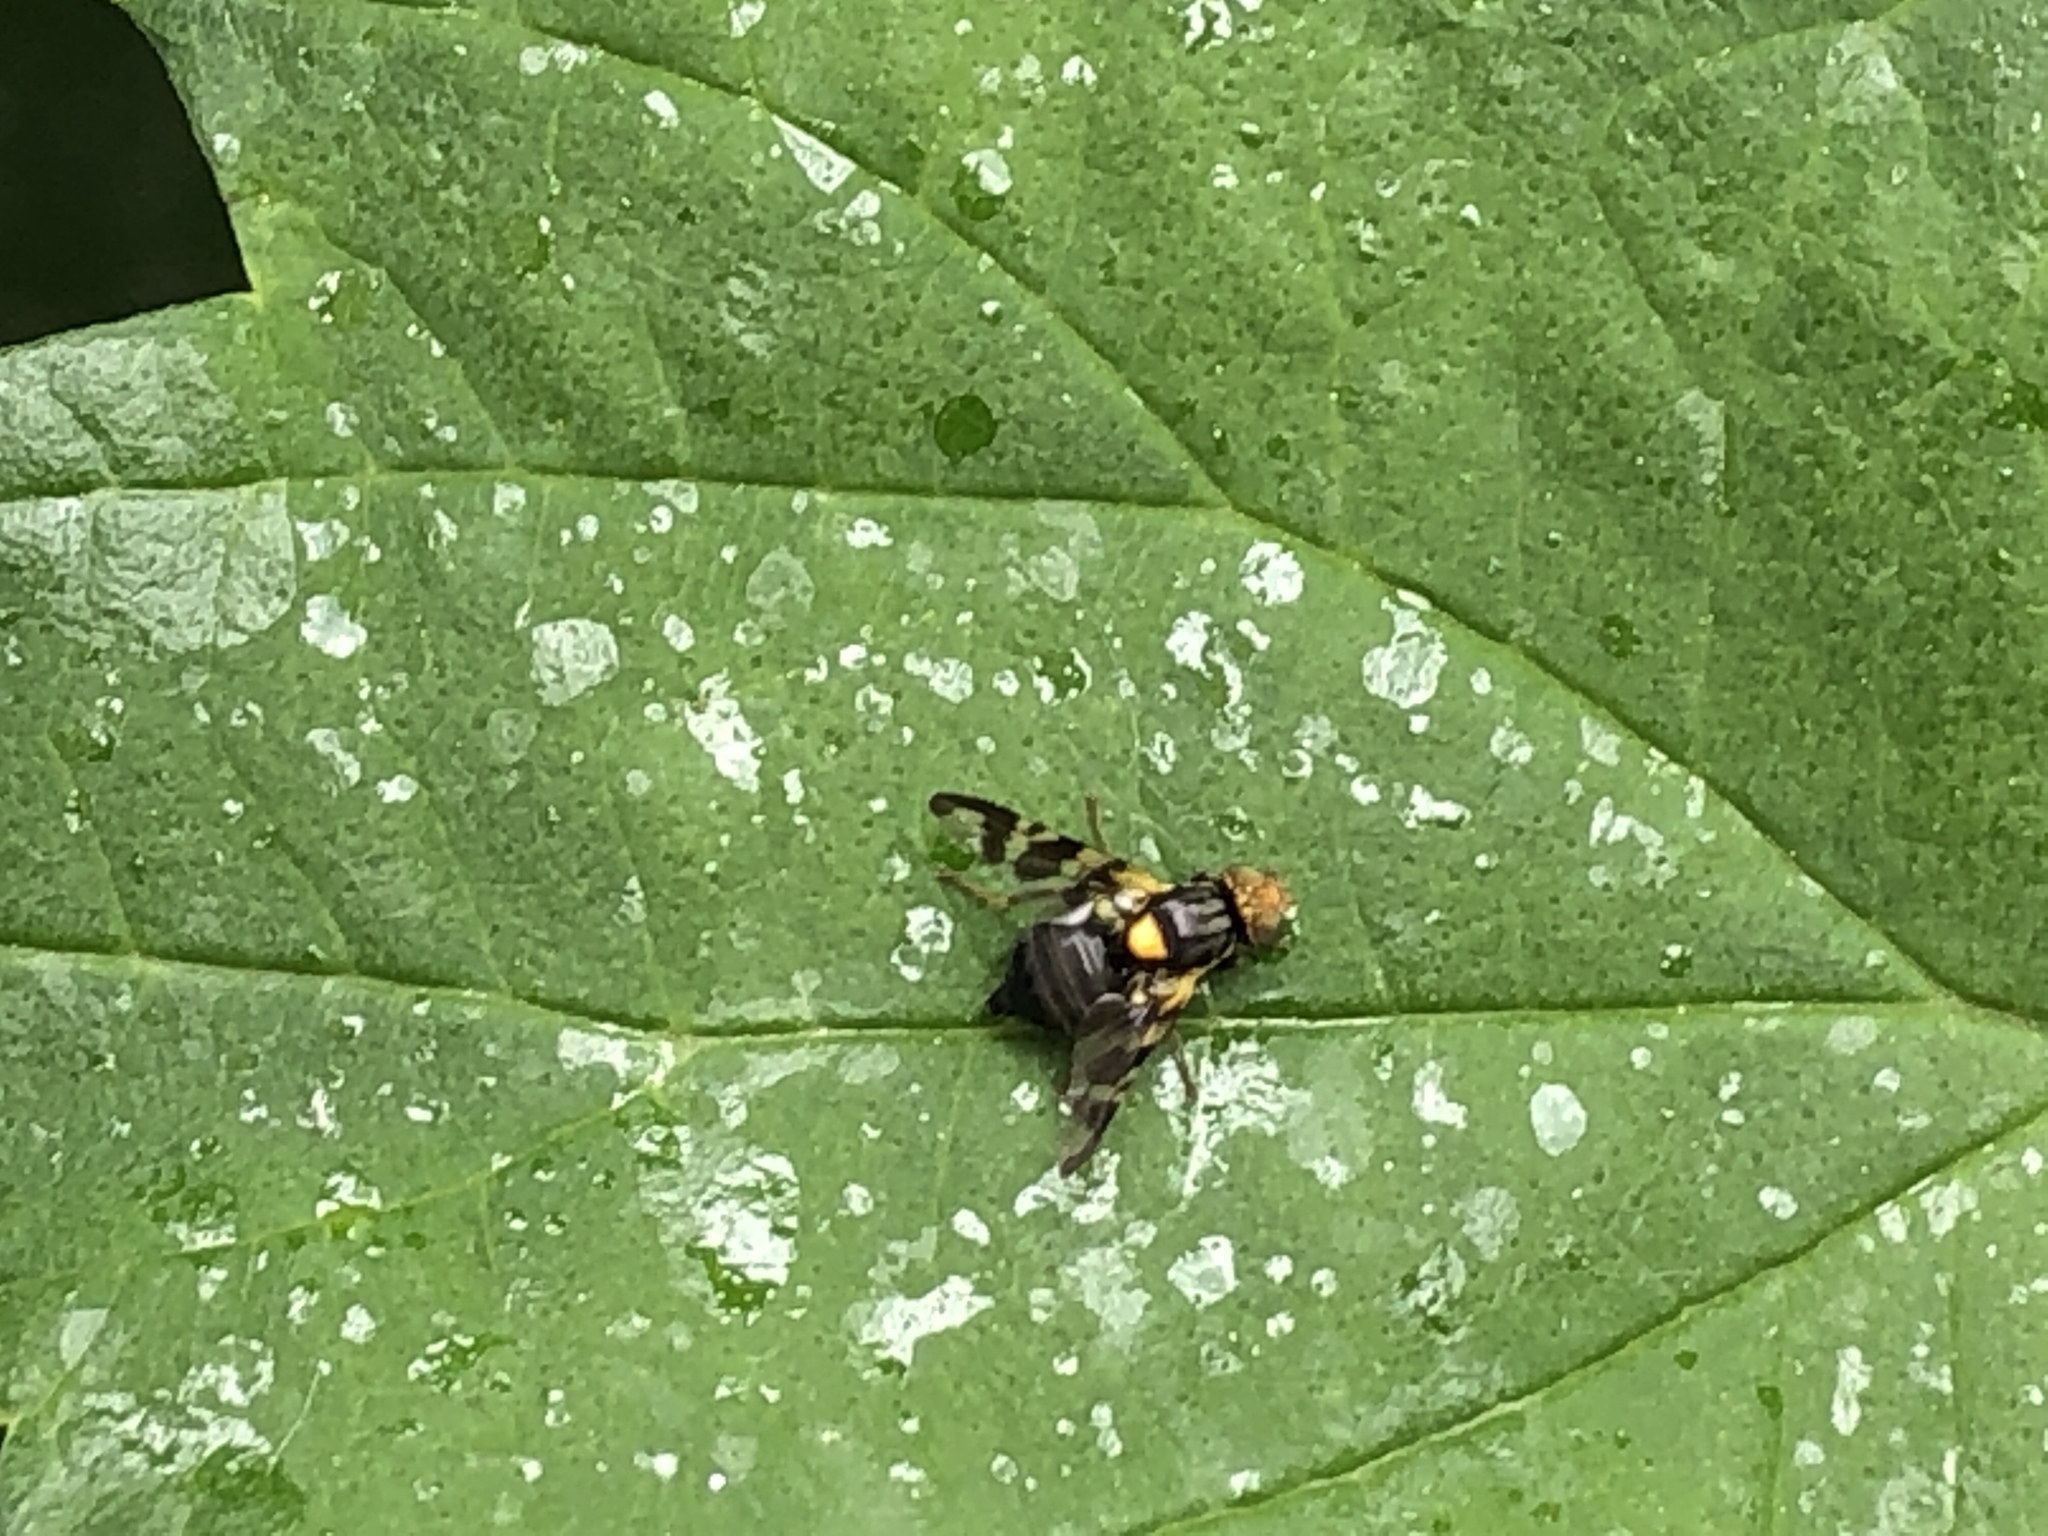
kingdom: Animalia
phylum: Arthropoda
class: Insecta
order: Diptera
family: Tephritidae
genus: Rhagoletis
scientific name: Rhagoletis cerasi
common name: European cherry fruit fly
